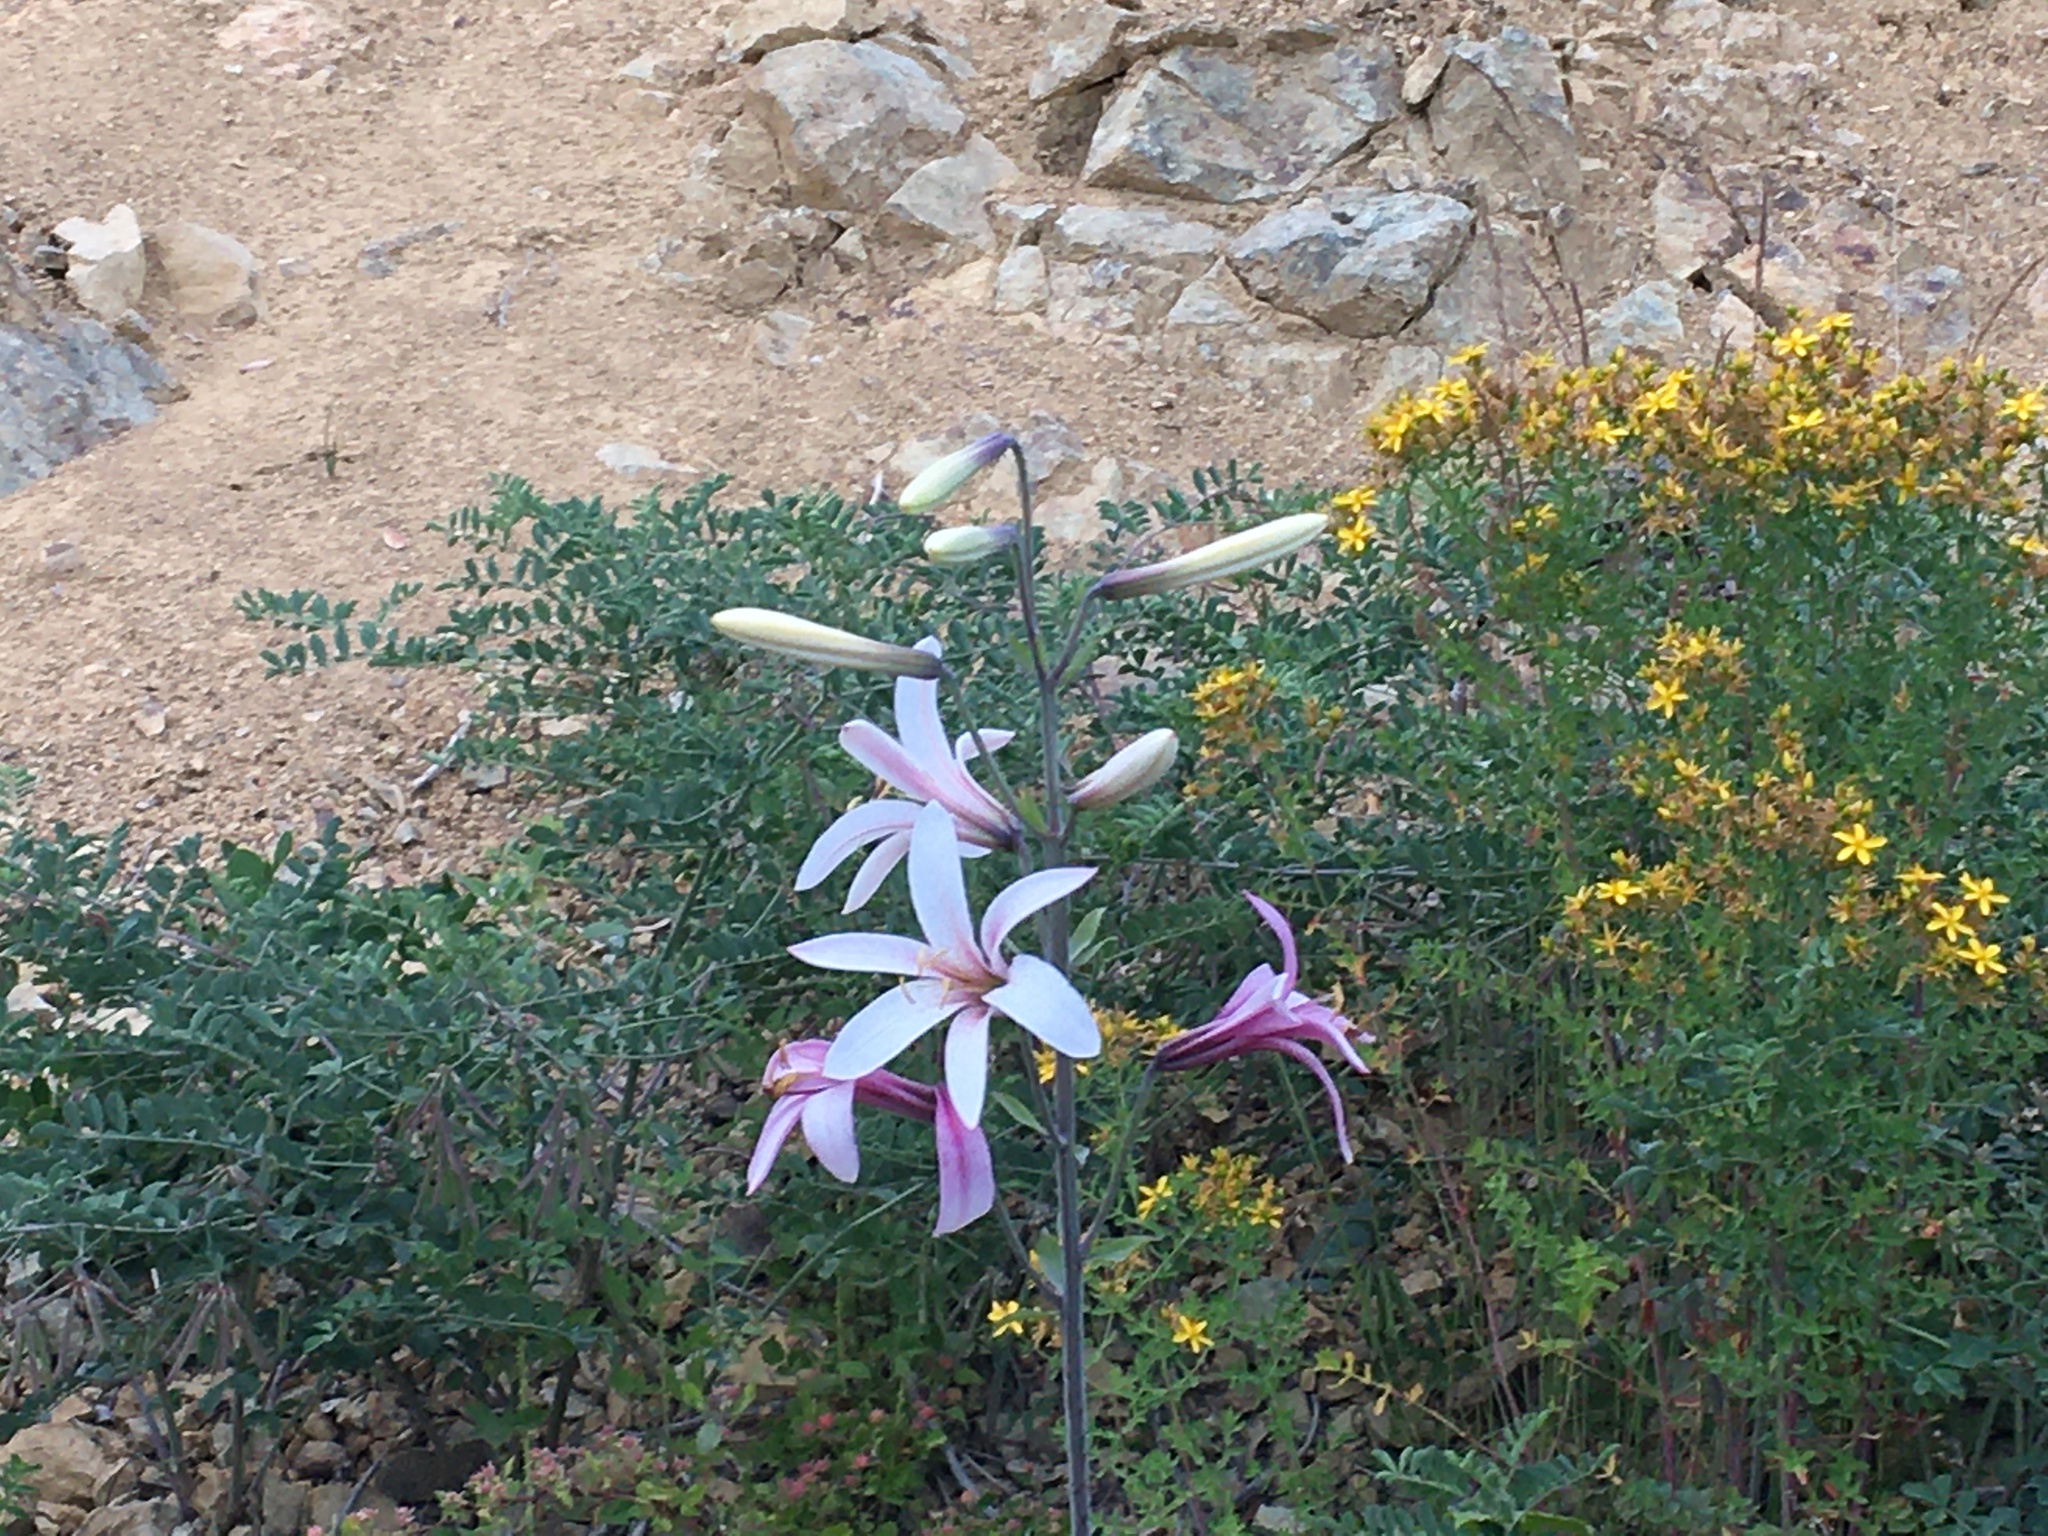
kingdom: Plantae
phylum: Tracheophyta
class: Liliopsida
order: Liliales
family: Liliaceae
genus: Lilium
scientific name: Lilium washingtonianum
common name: Washington lily
